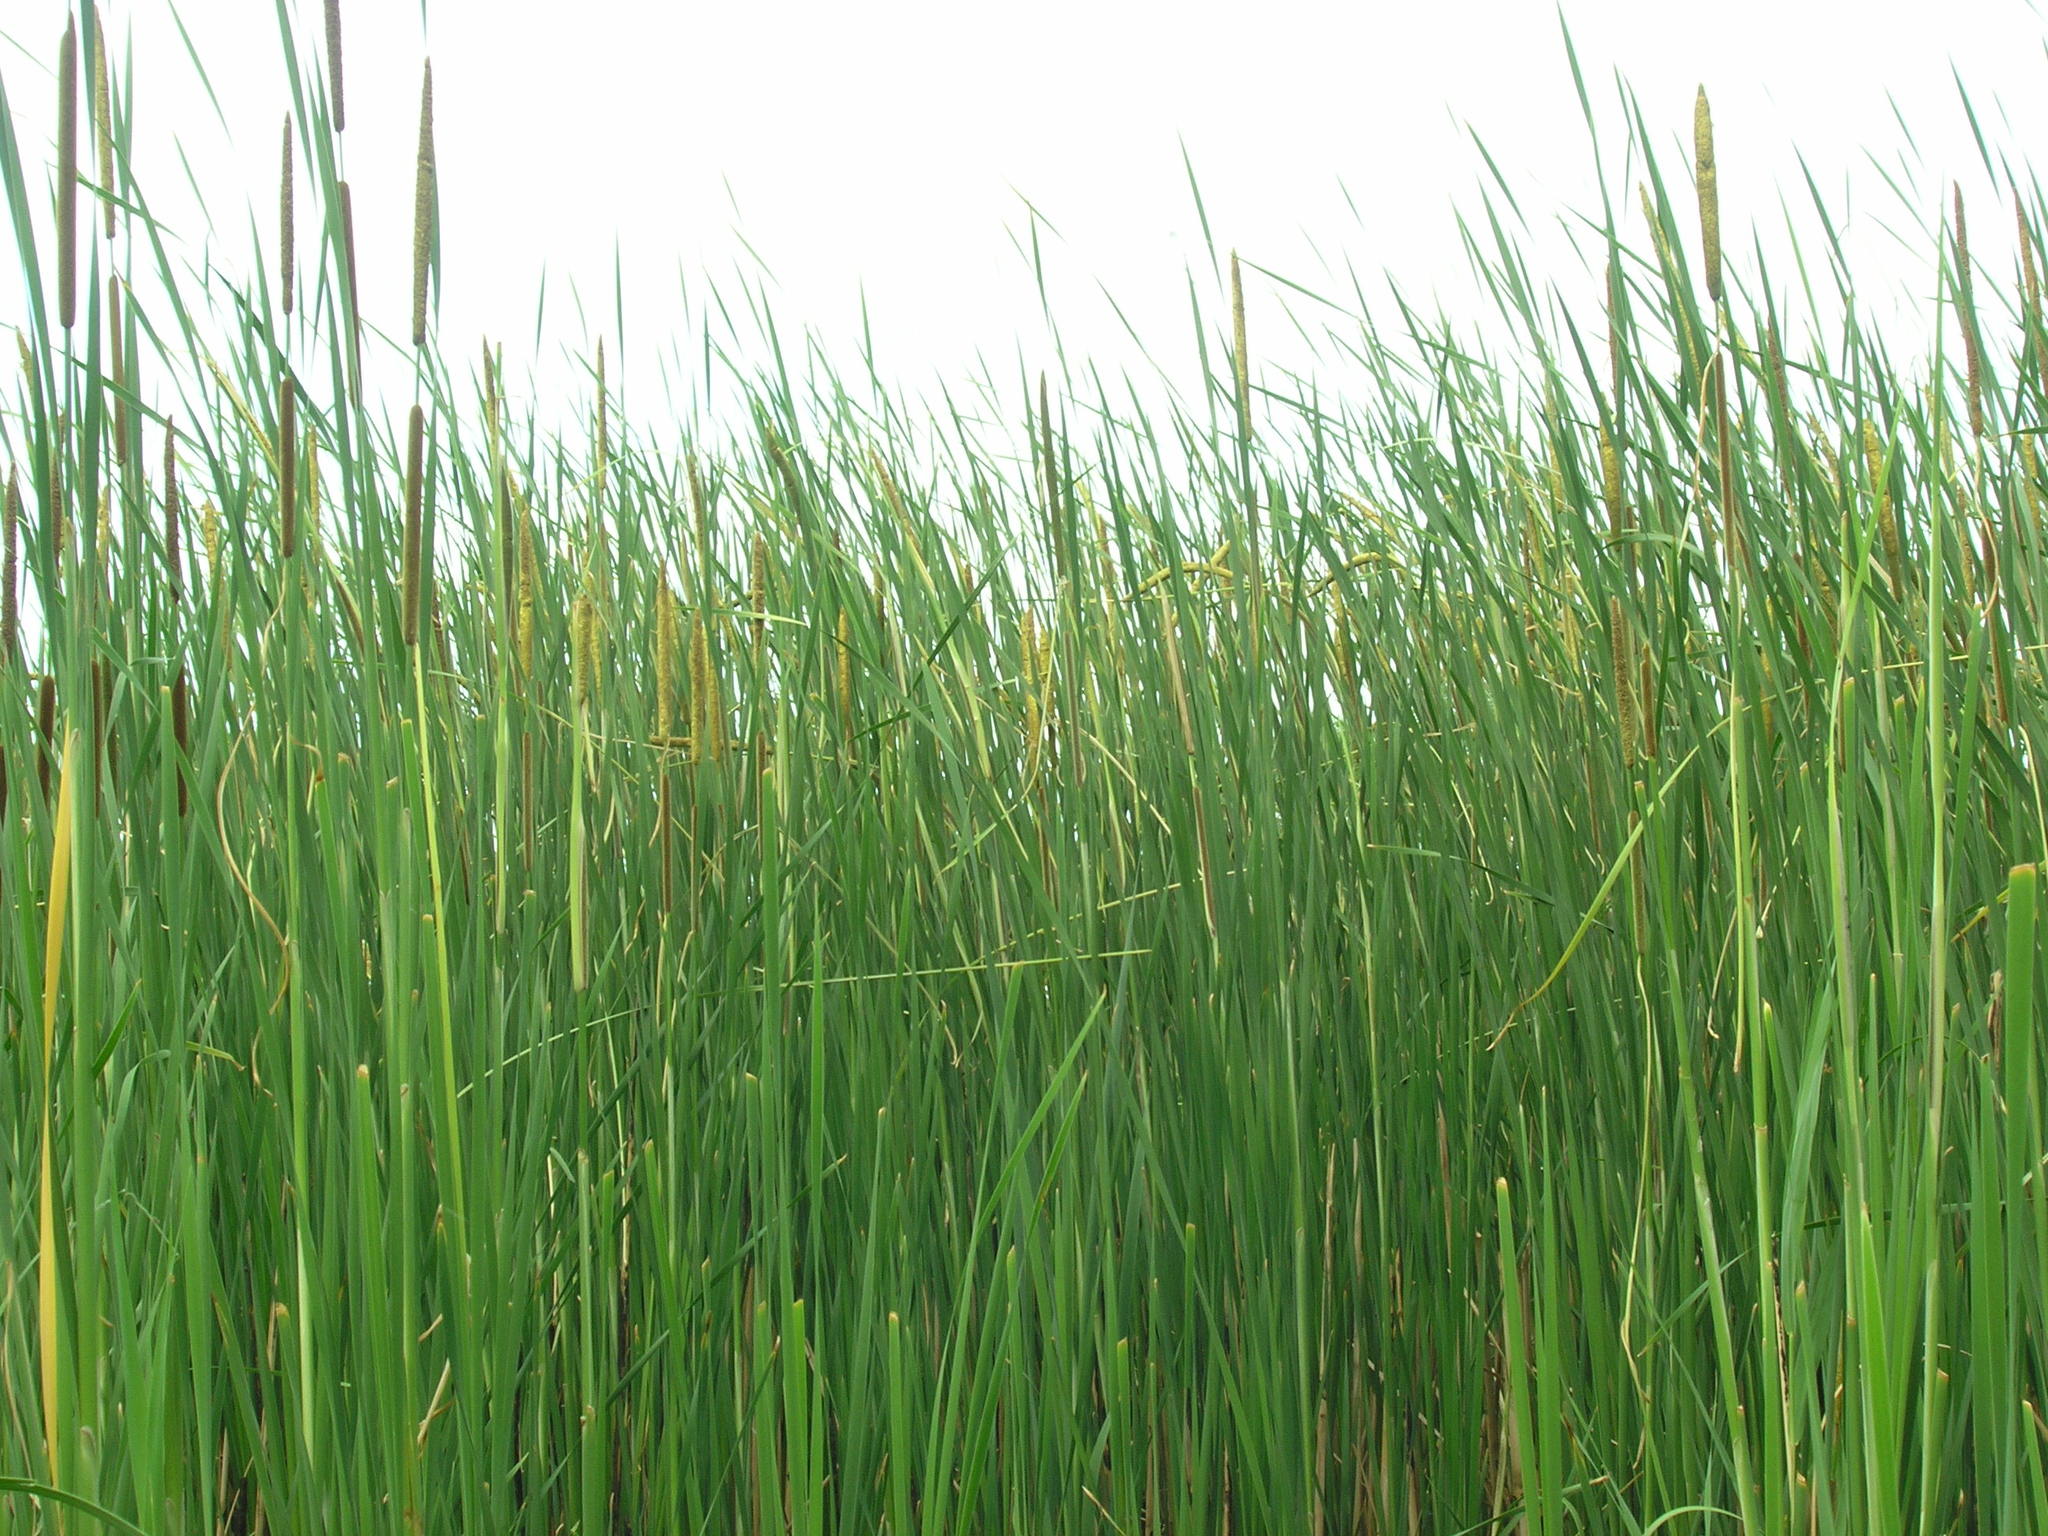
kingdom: Plantae
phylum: Tracheophyta
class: Liliopsida
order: Poales
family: Typhaceae
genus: Typha
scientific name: Typha angustifolia
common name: Lesser bulrush
